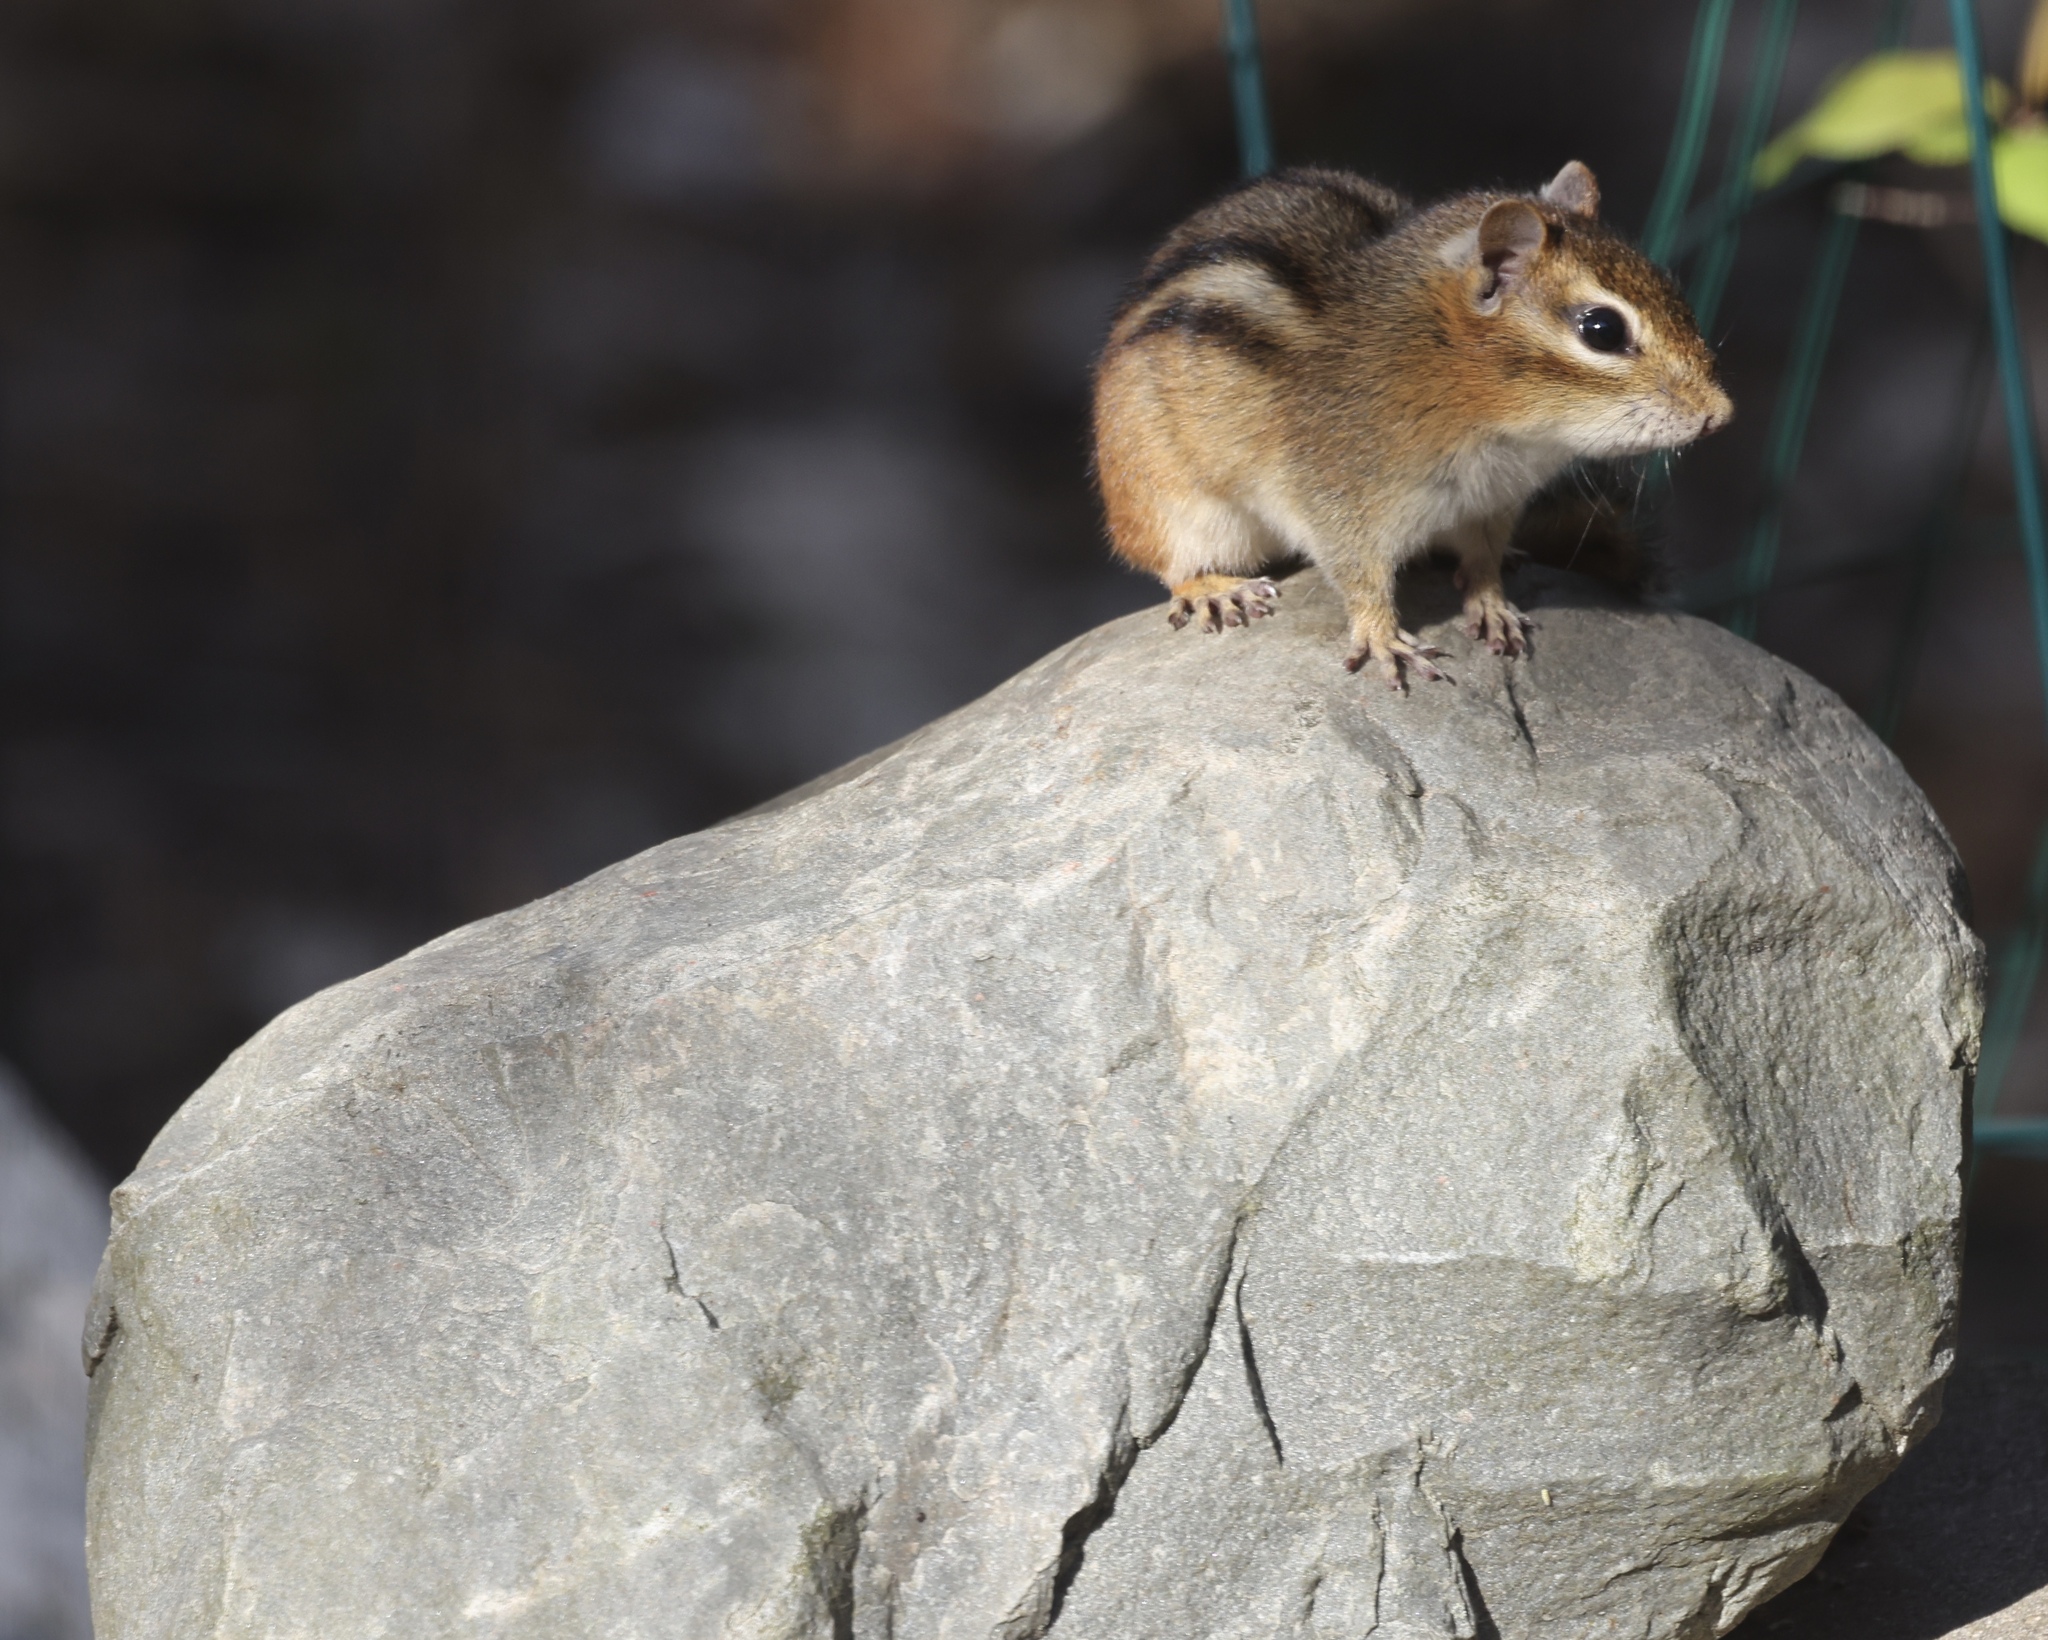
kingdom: Animalia
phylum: Chordata
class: Mammalia
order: Rodentia
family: Sciuridae
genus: Tamias
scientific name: Tamias striatus
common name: Eastern chipmunk
